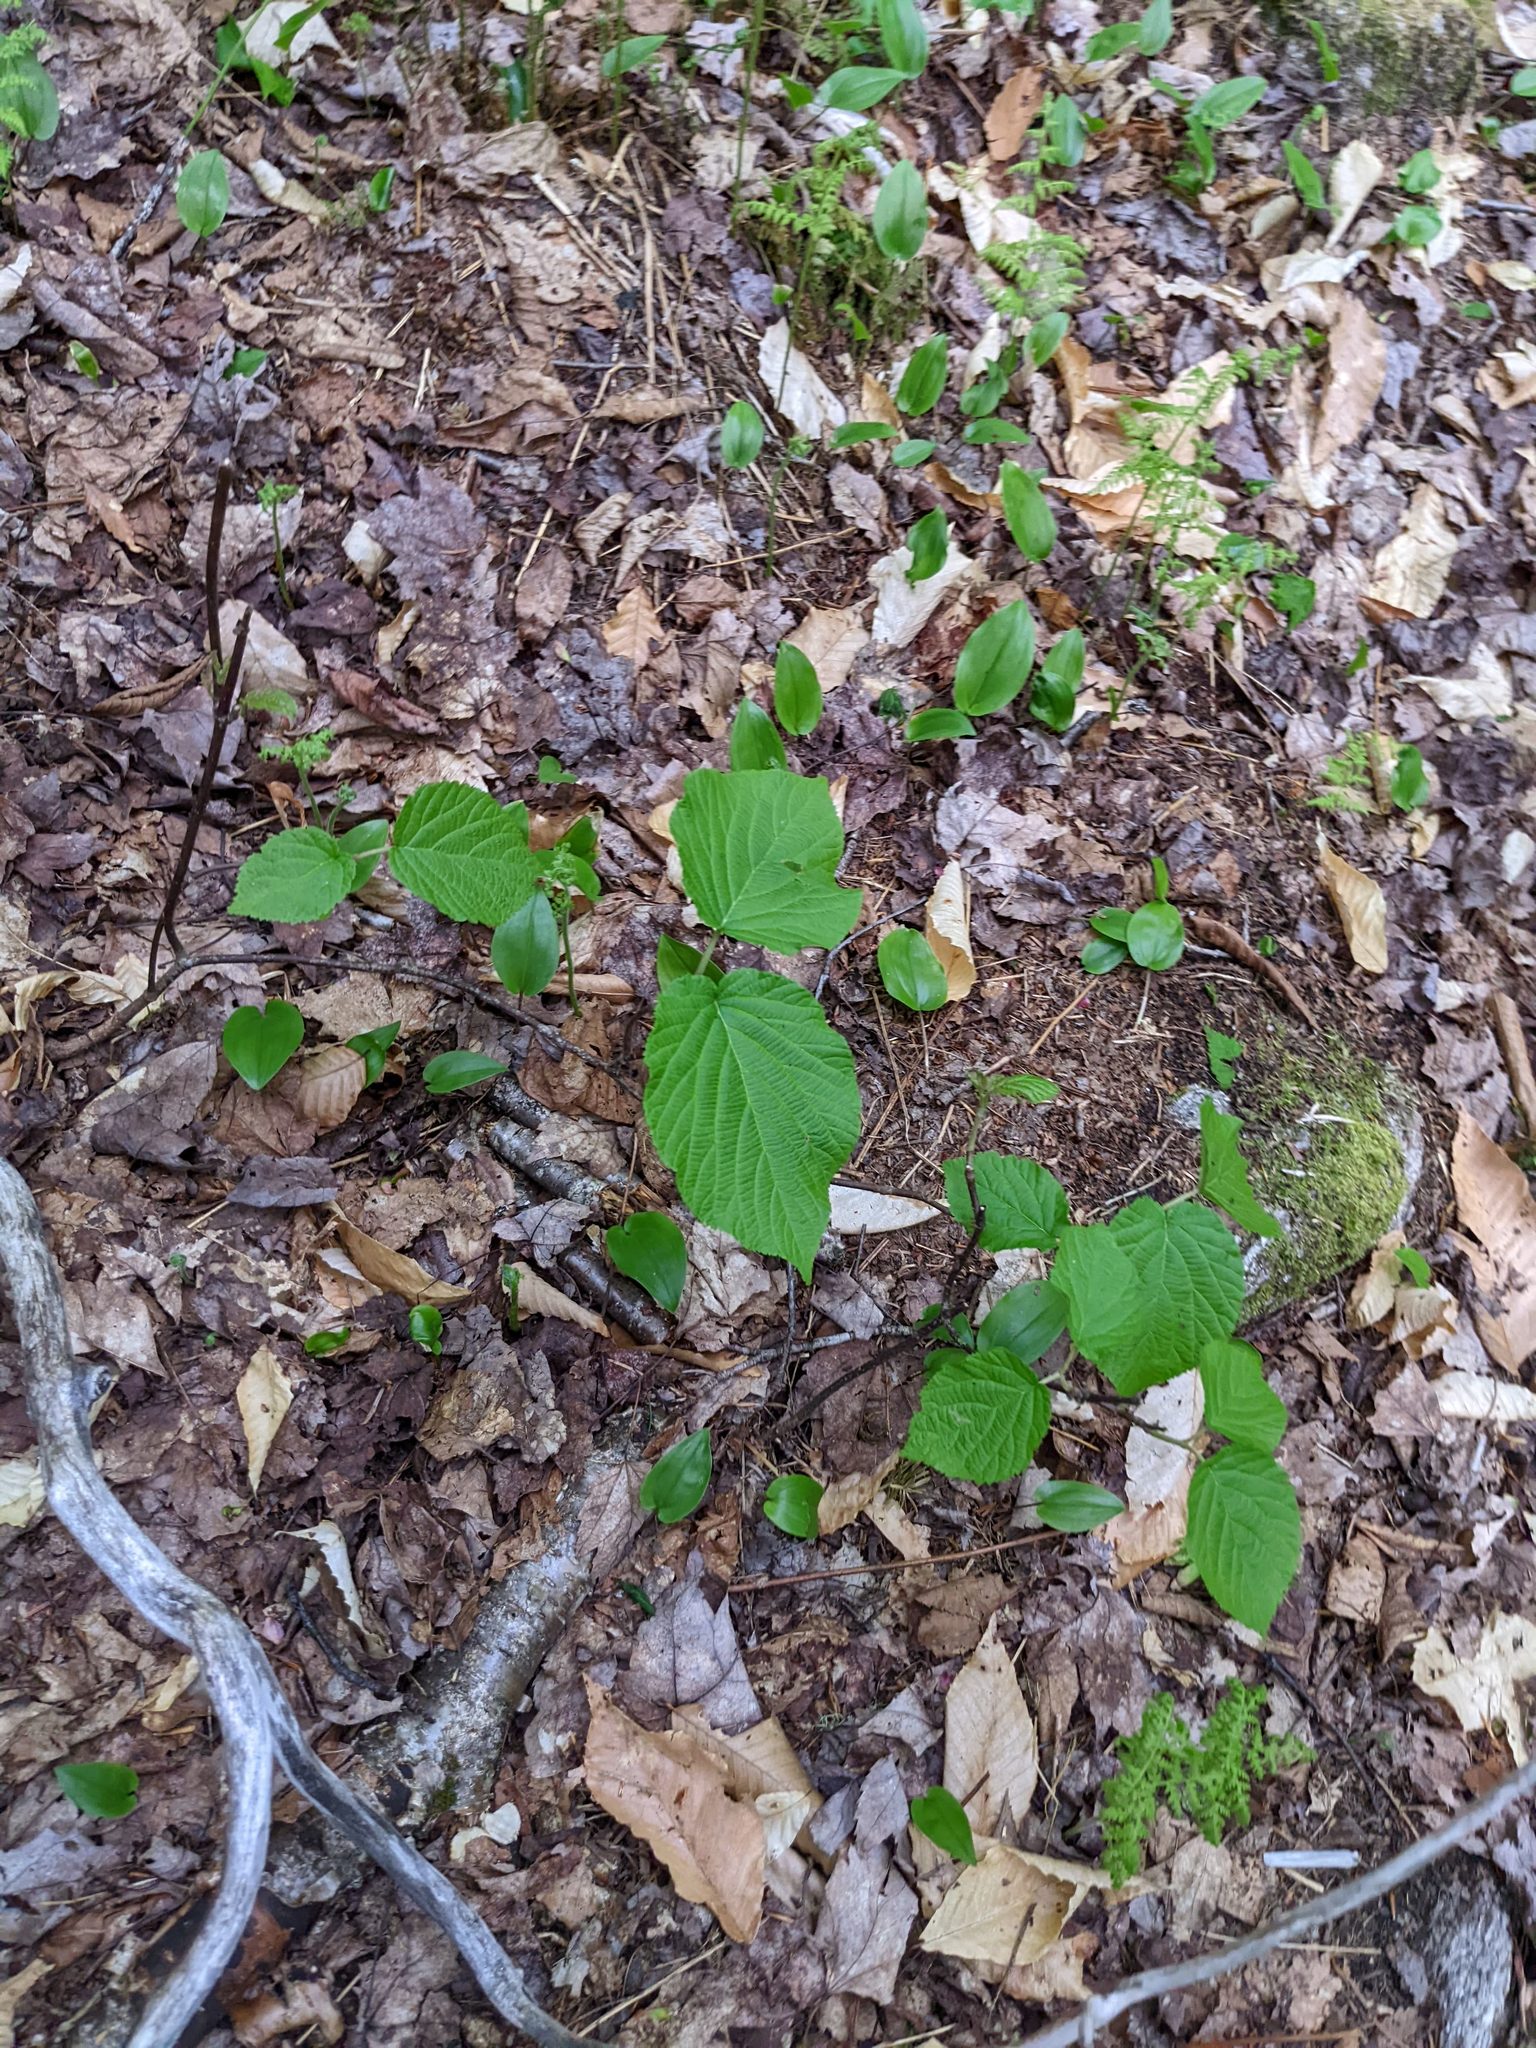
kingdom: Plantae
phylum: Tracheophyta
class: Magnoliopsida
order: Dipsacales
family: Viburnaceae
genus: Viburnum
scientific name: Viburnum lantanoides
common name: Hobblebush
